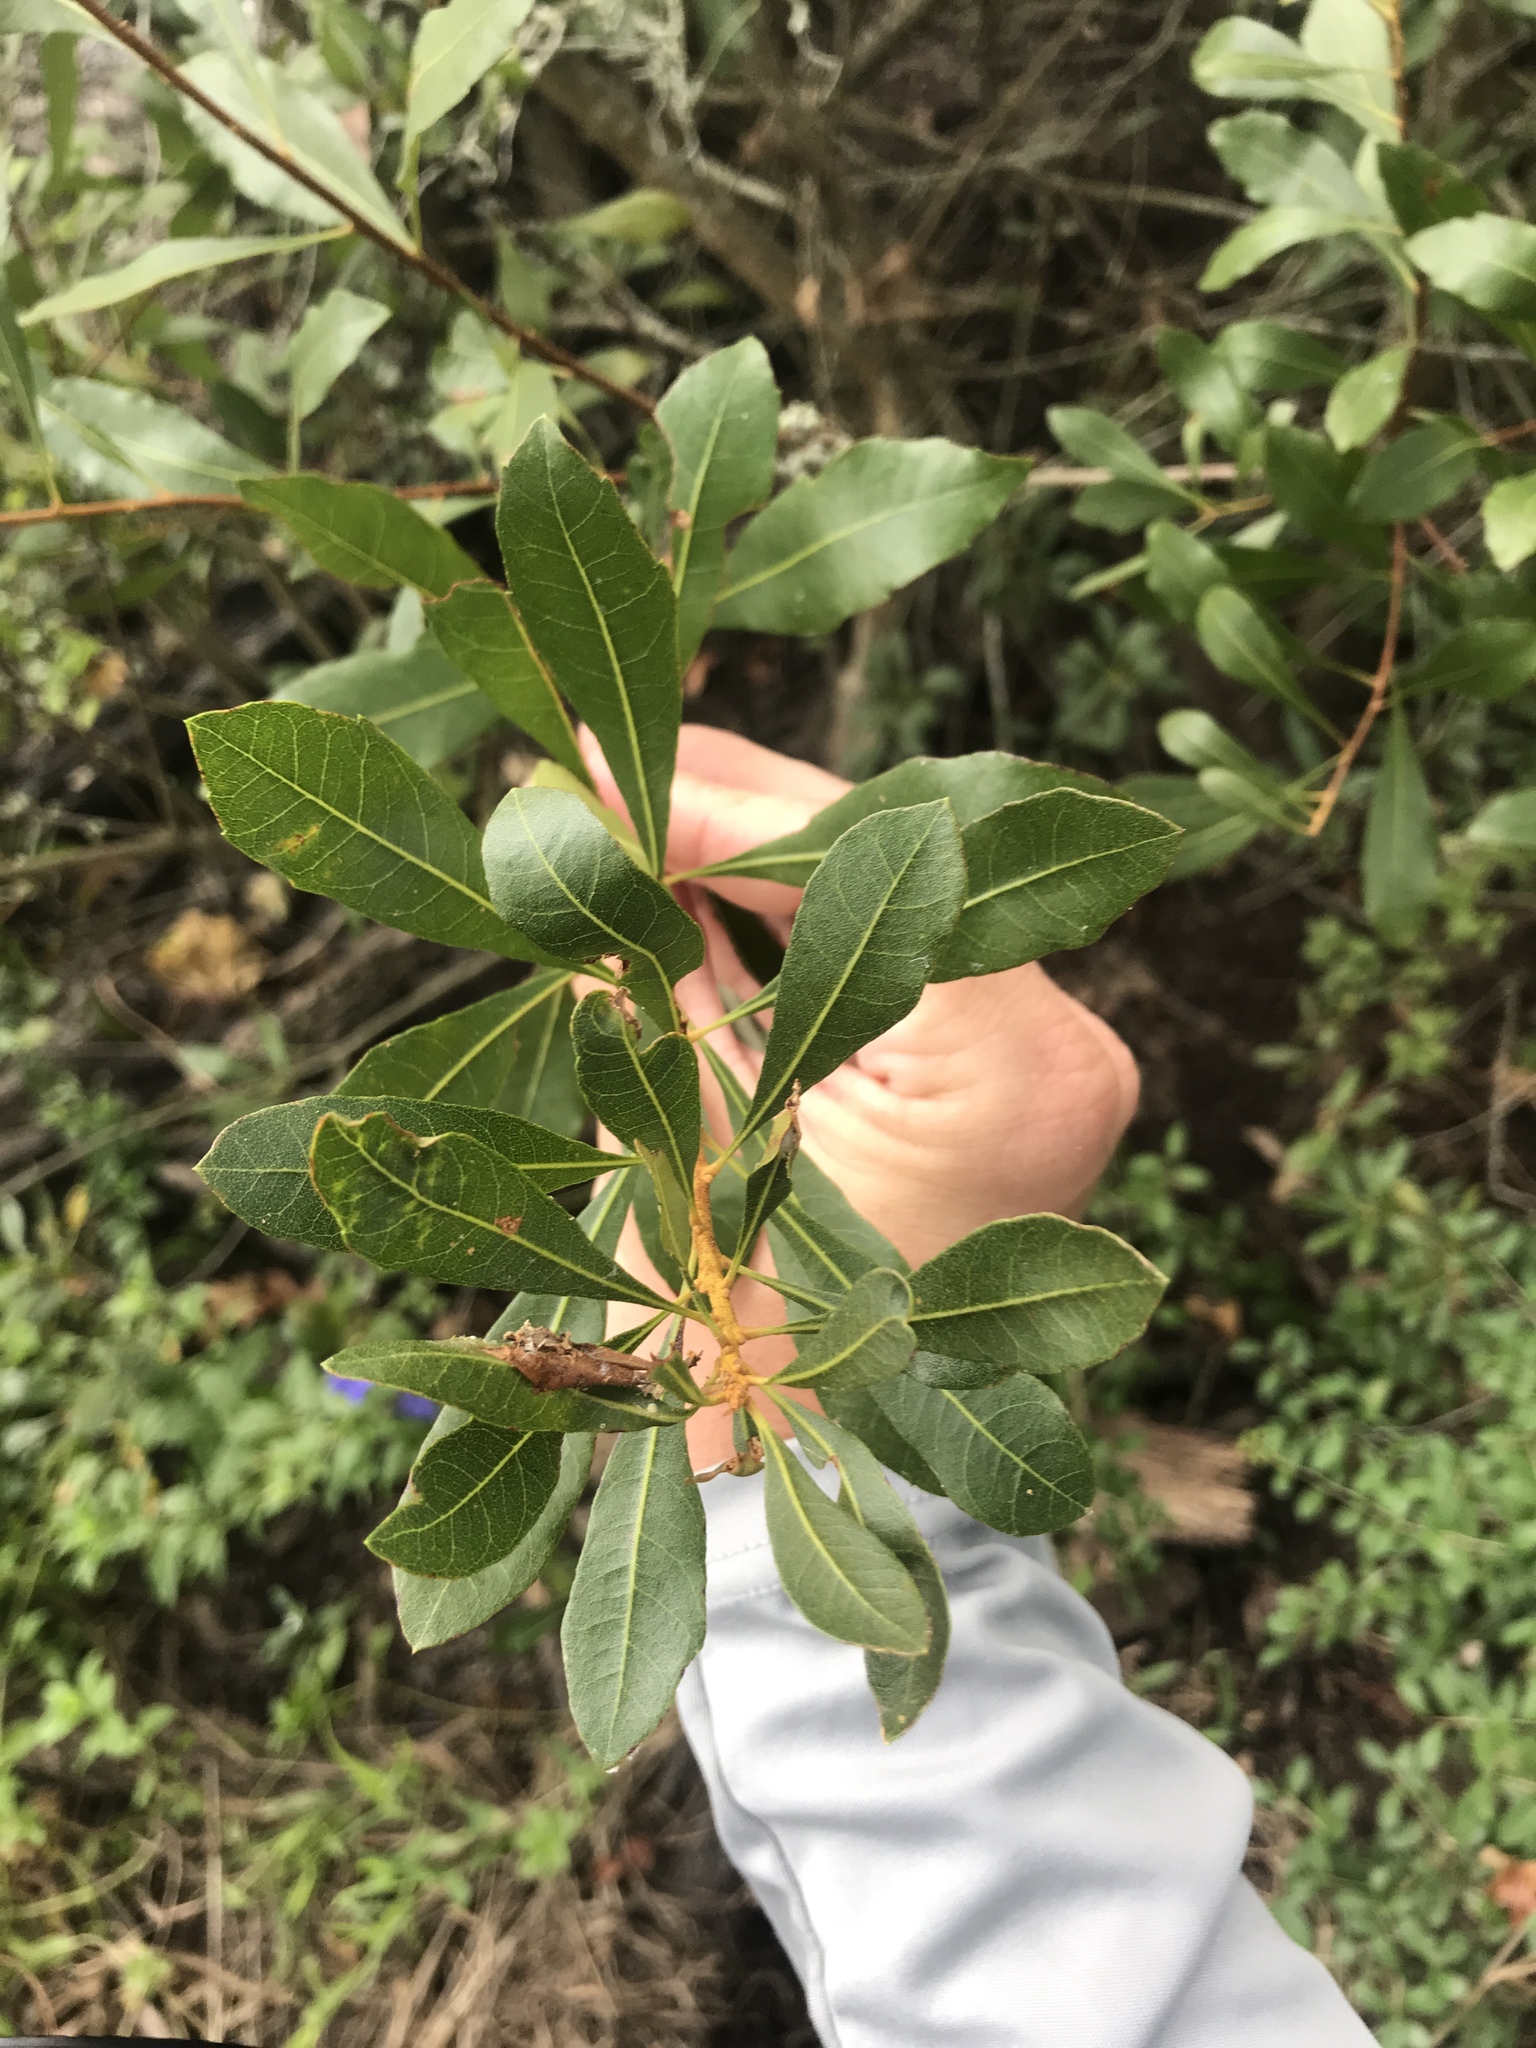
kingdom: Plantae
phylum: Tracheophyta
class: Magnoliopsida
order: Fagales
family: Myricaceae
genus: Morella
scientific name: Morella cerifera
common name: Wax myrtle
